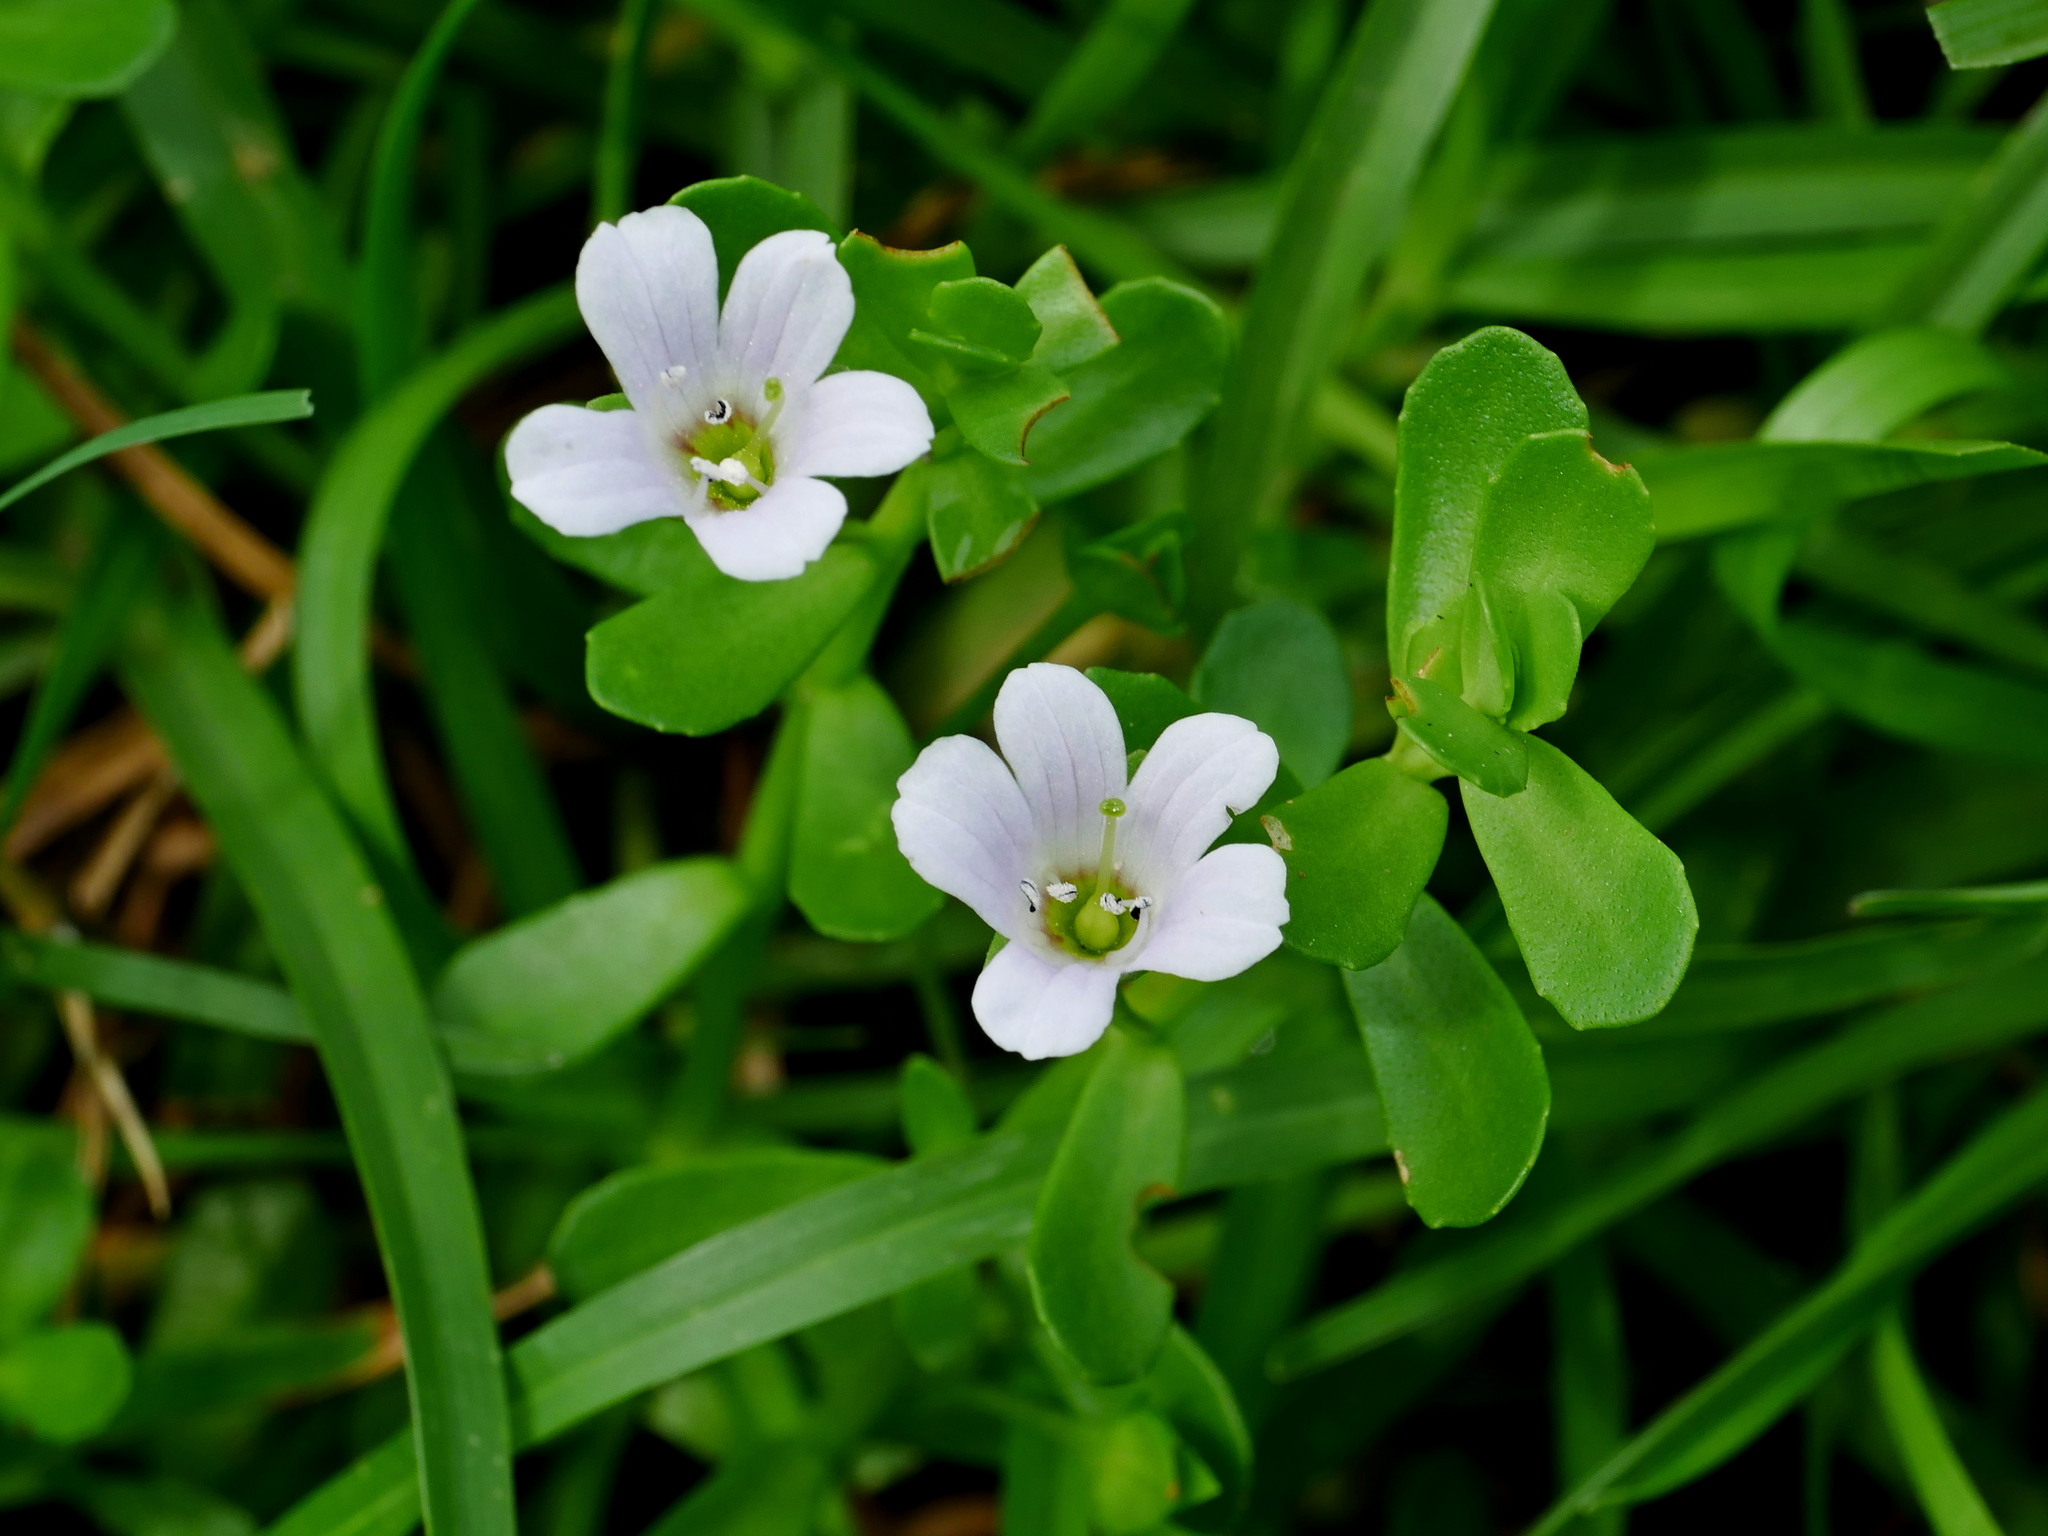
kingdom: Plantae
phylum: Tracheophyta
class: Magnoliopsida
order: Lamiales
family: Plantaginaceae
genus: Bacopa
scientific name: Bacopa monnieri
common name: Indian-pennywort
